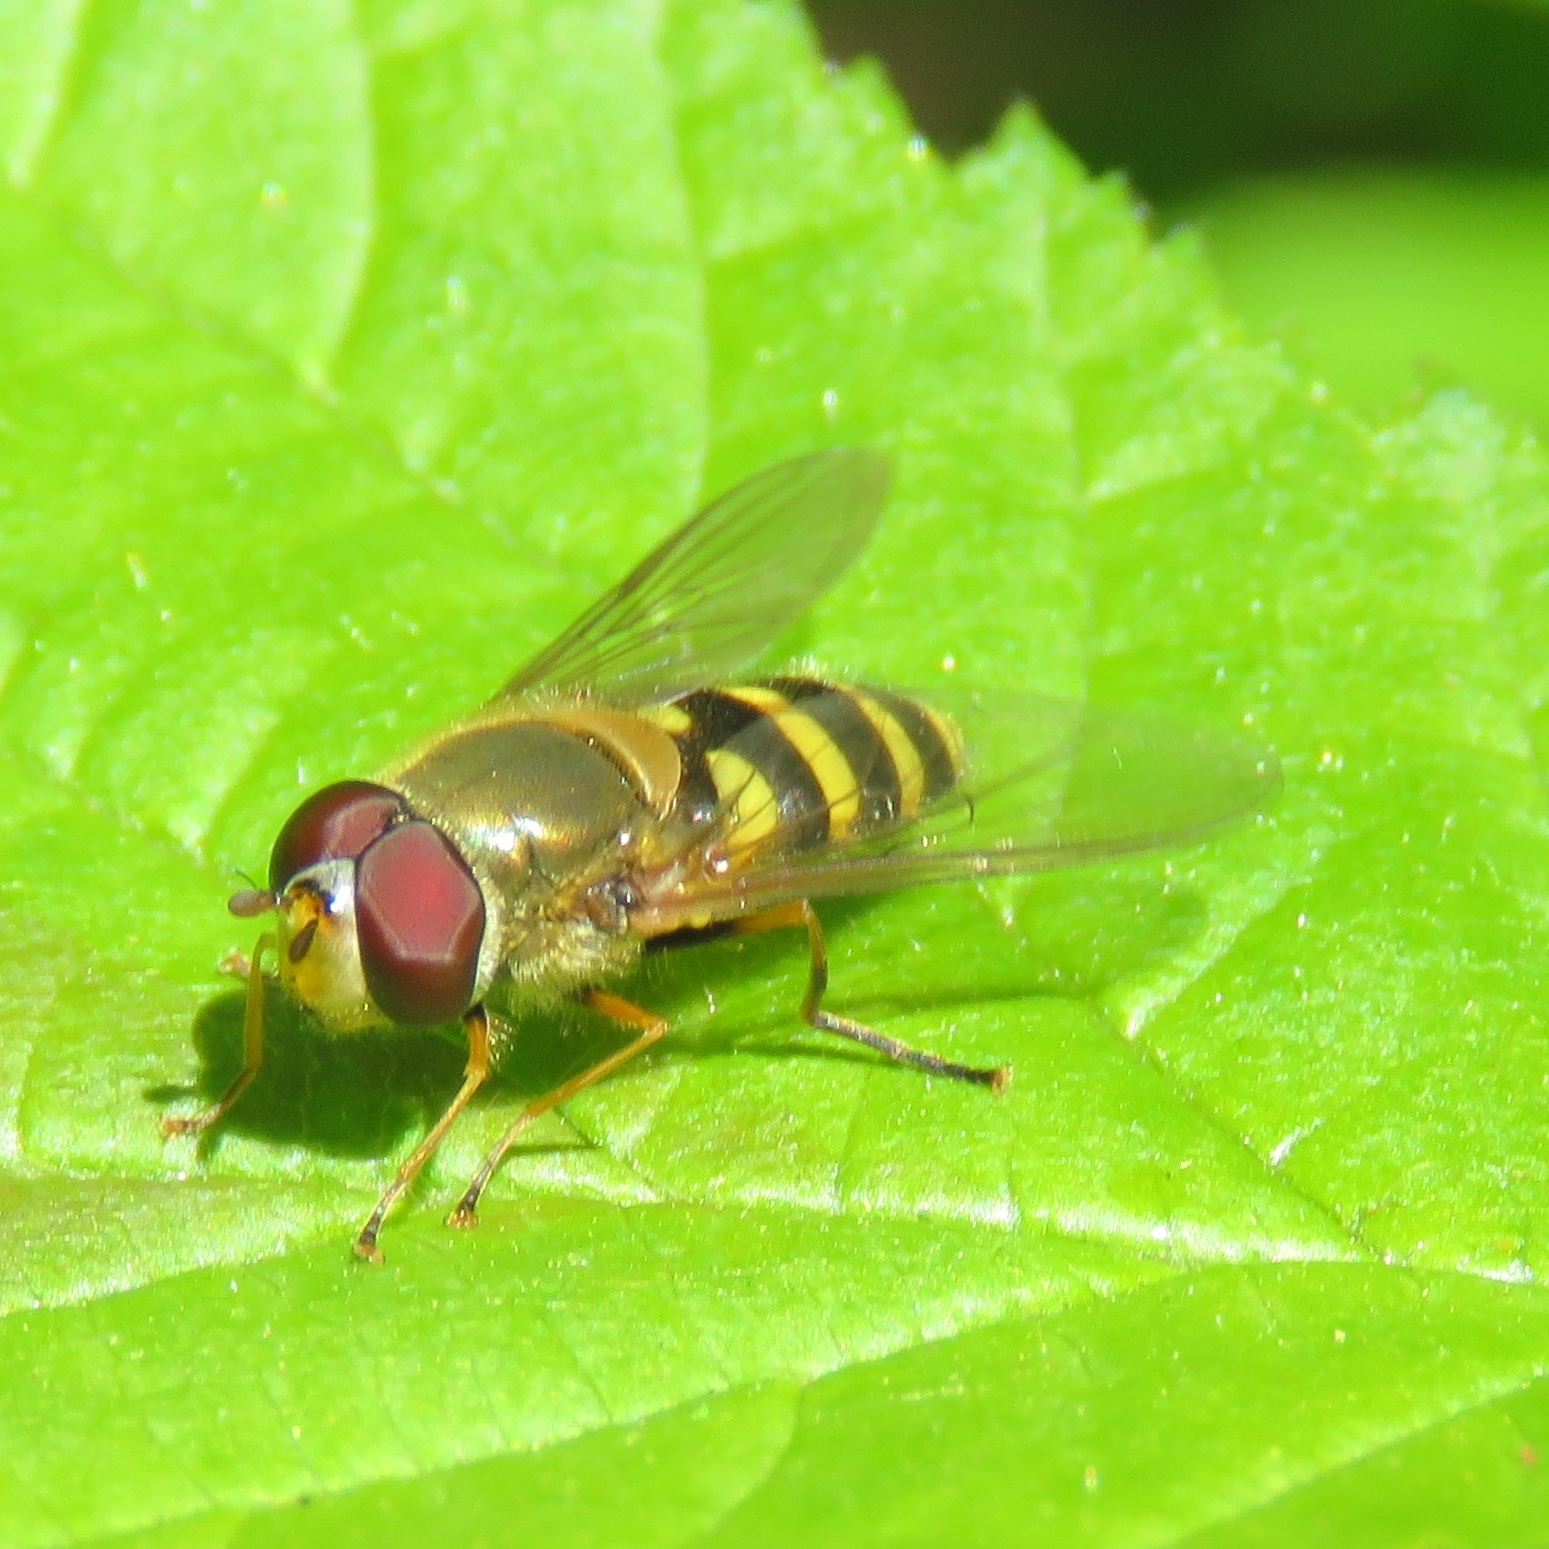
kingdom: Animalia
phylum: Arthropoda
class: Insecta
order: Diptera
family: Syrphidae
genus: Syrphus
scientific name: Syrphus
